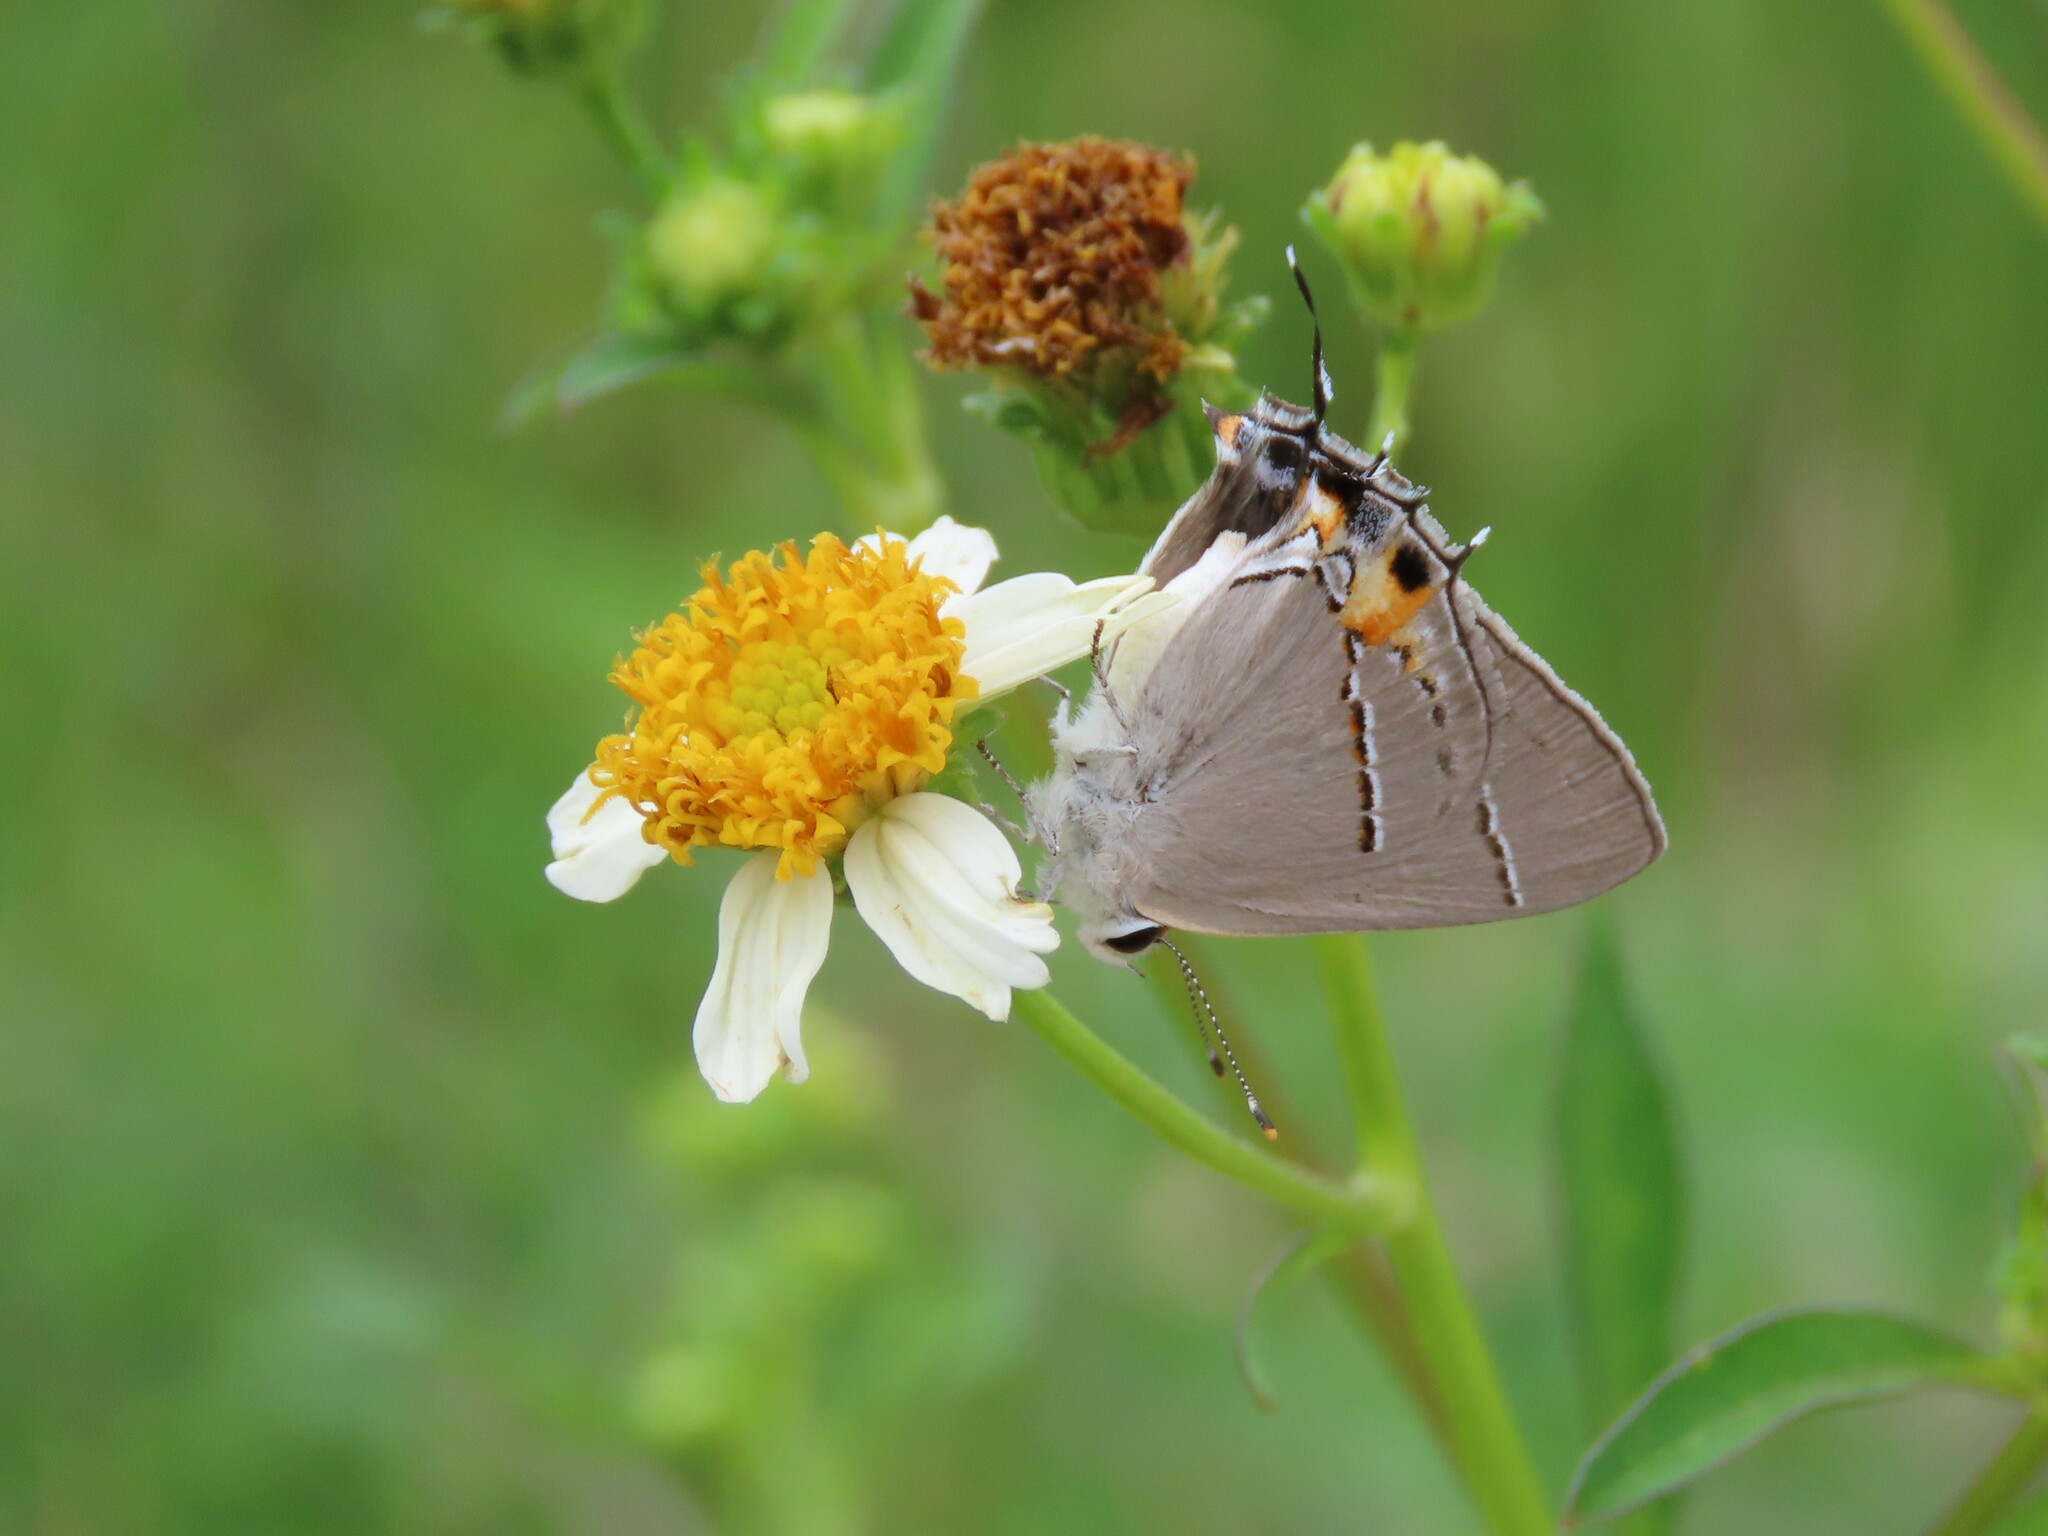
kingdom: Animalia
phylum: Arthropoda
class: Insecta
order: Lepidoptera
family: Lycaenidae
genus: Strymon
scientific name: Strymon melinus
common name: Gray hairstreak
